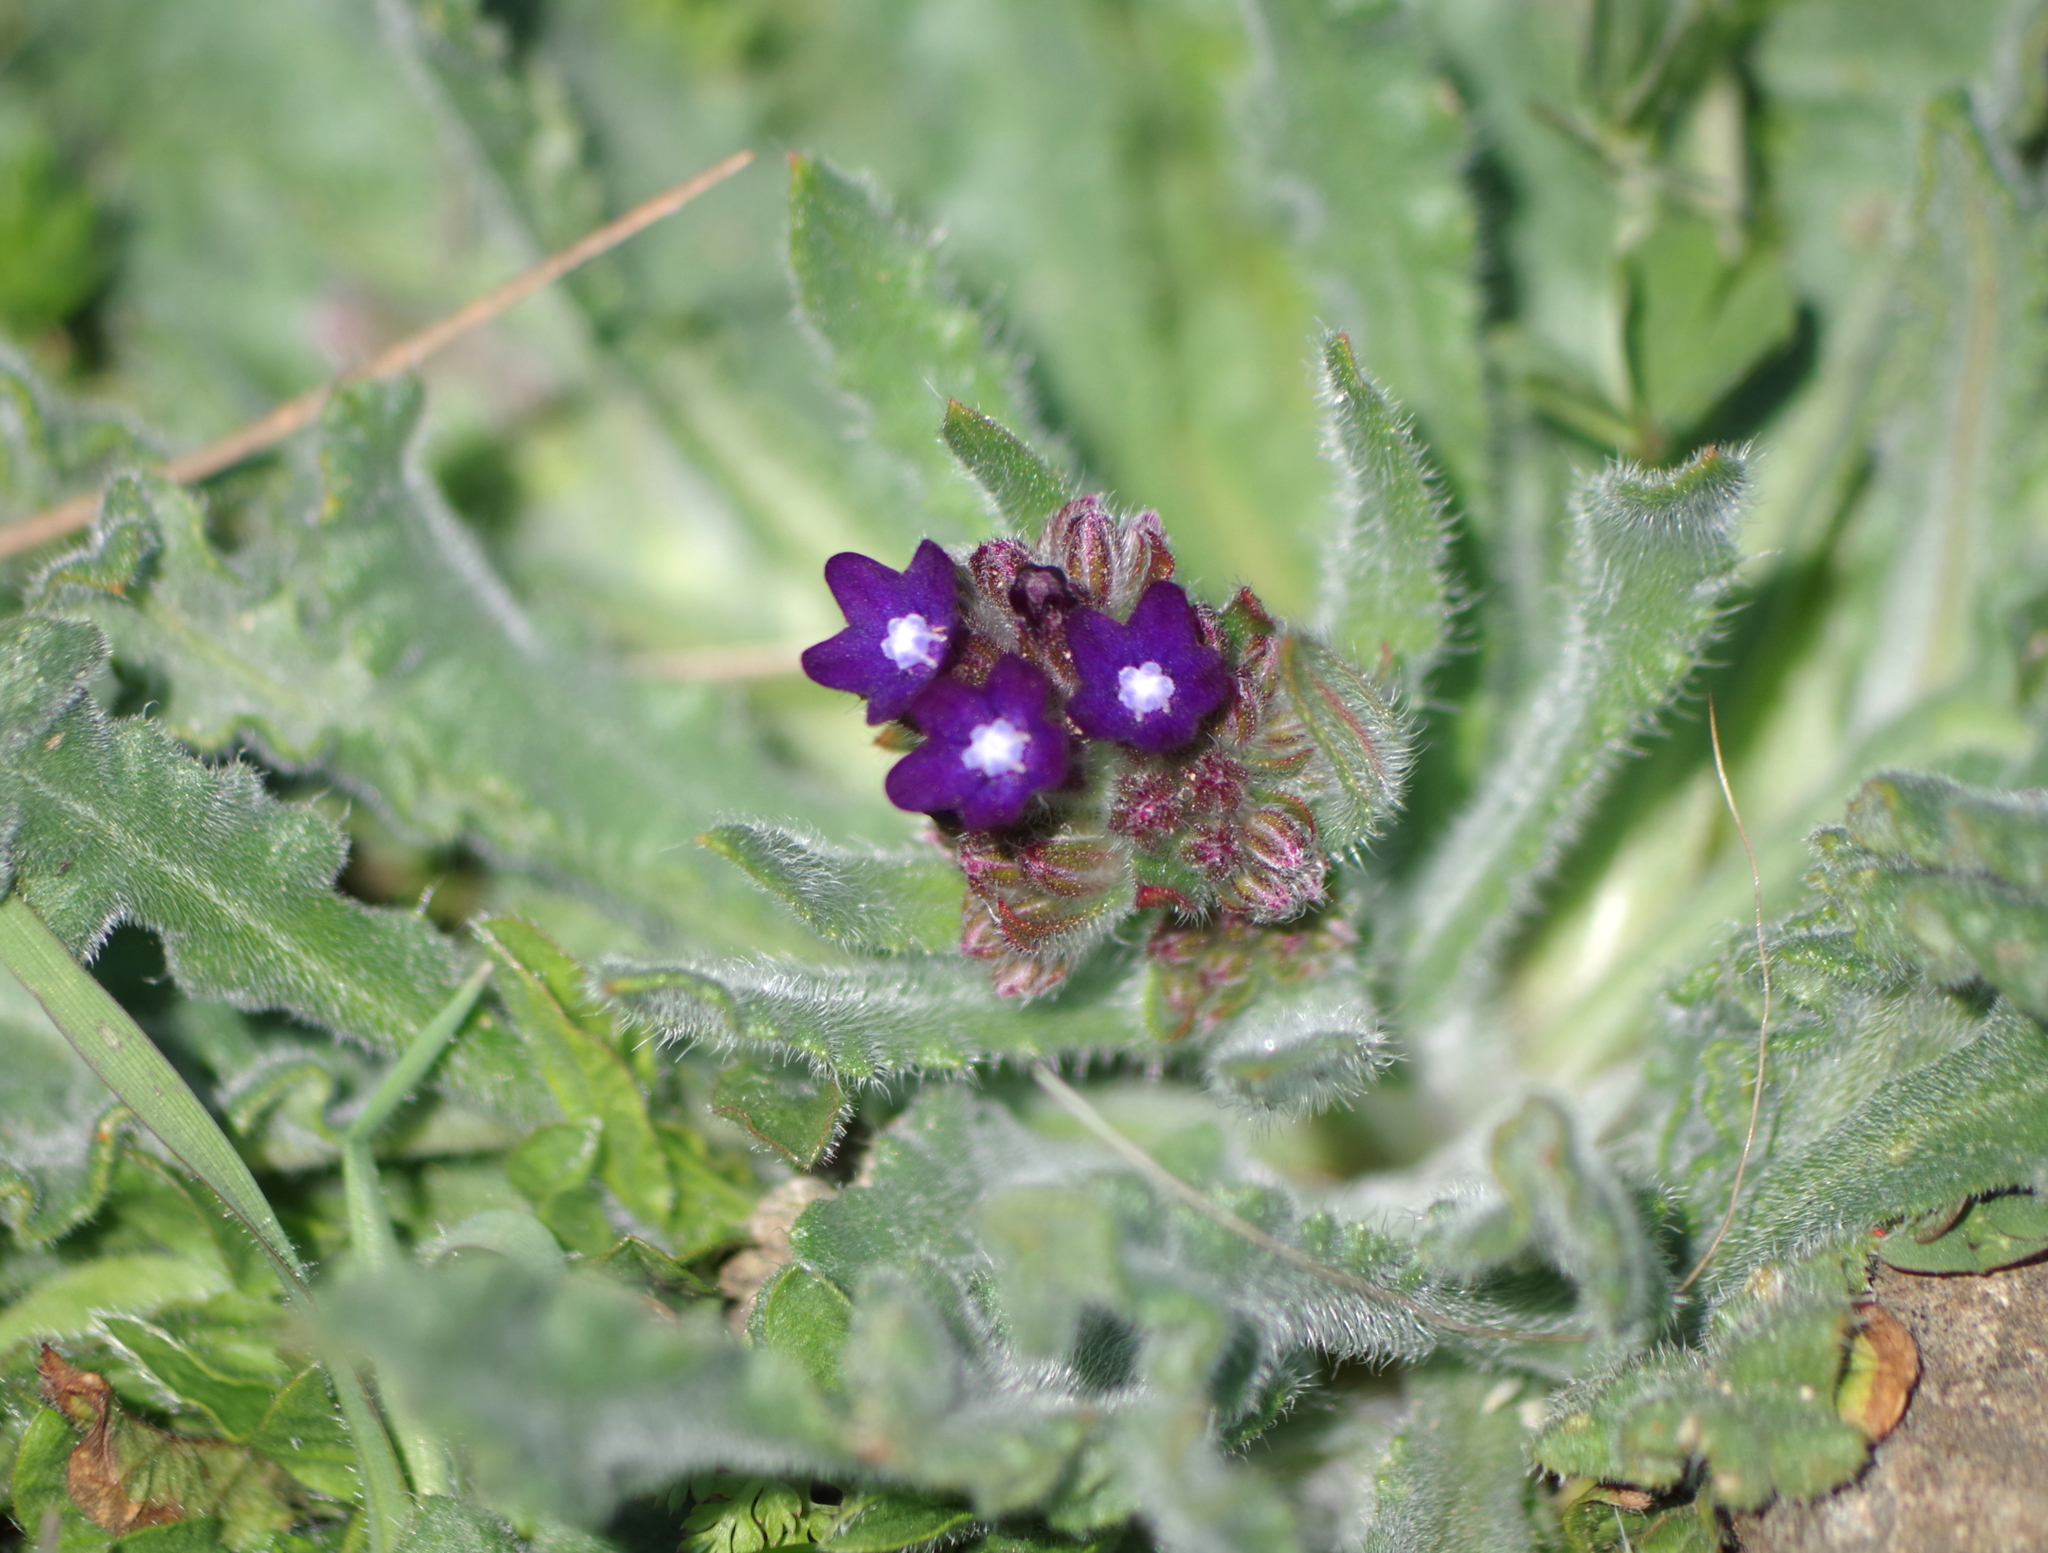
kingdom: Plantae
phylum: Tracheophyta
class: Magnoliopsida
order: Boraginales
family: Boraginaceae
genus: Anchusa
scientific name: Anchusa officinalis
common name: Alkanet
